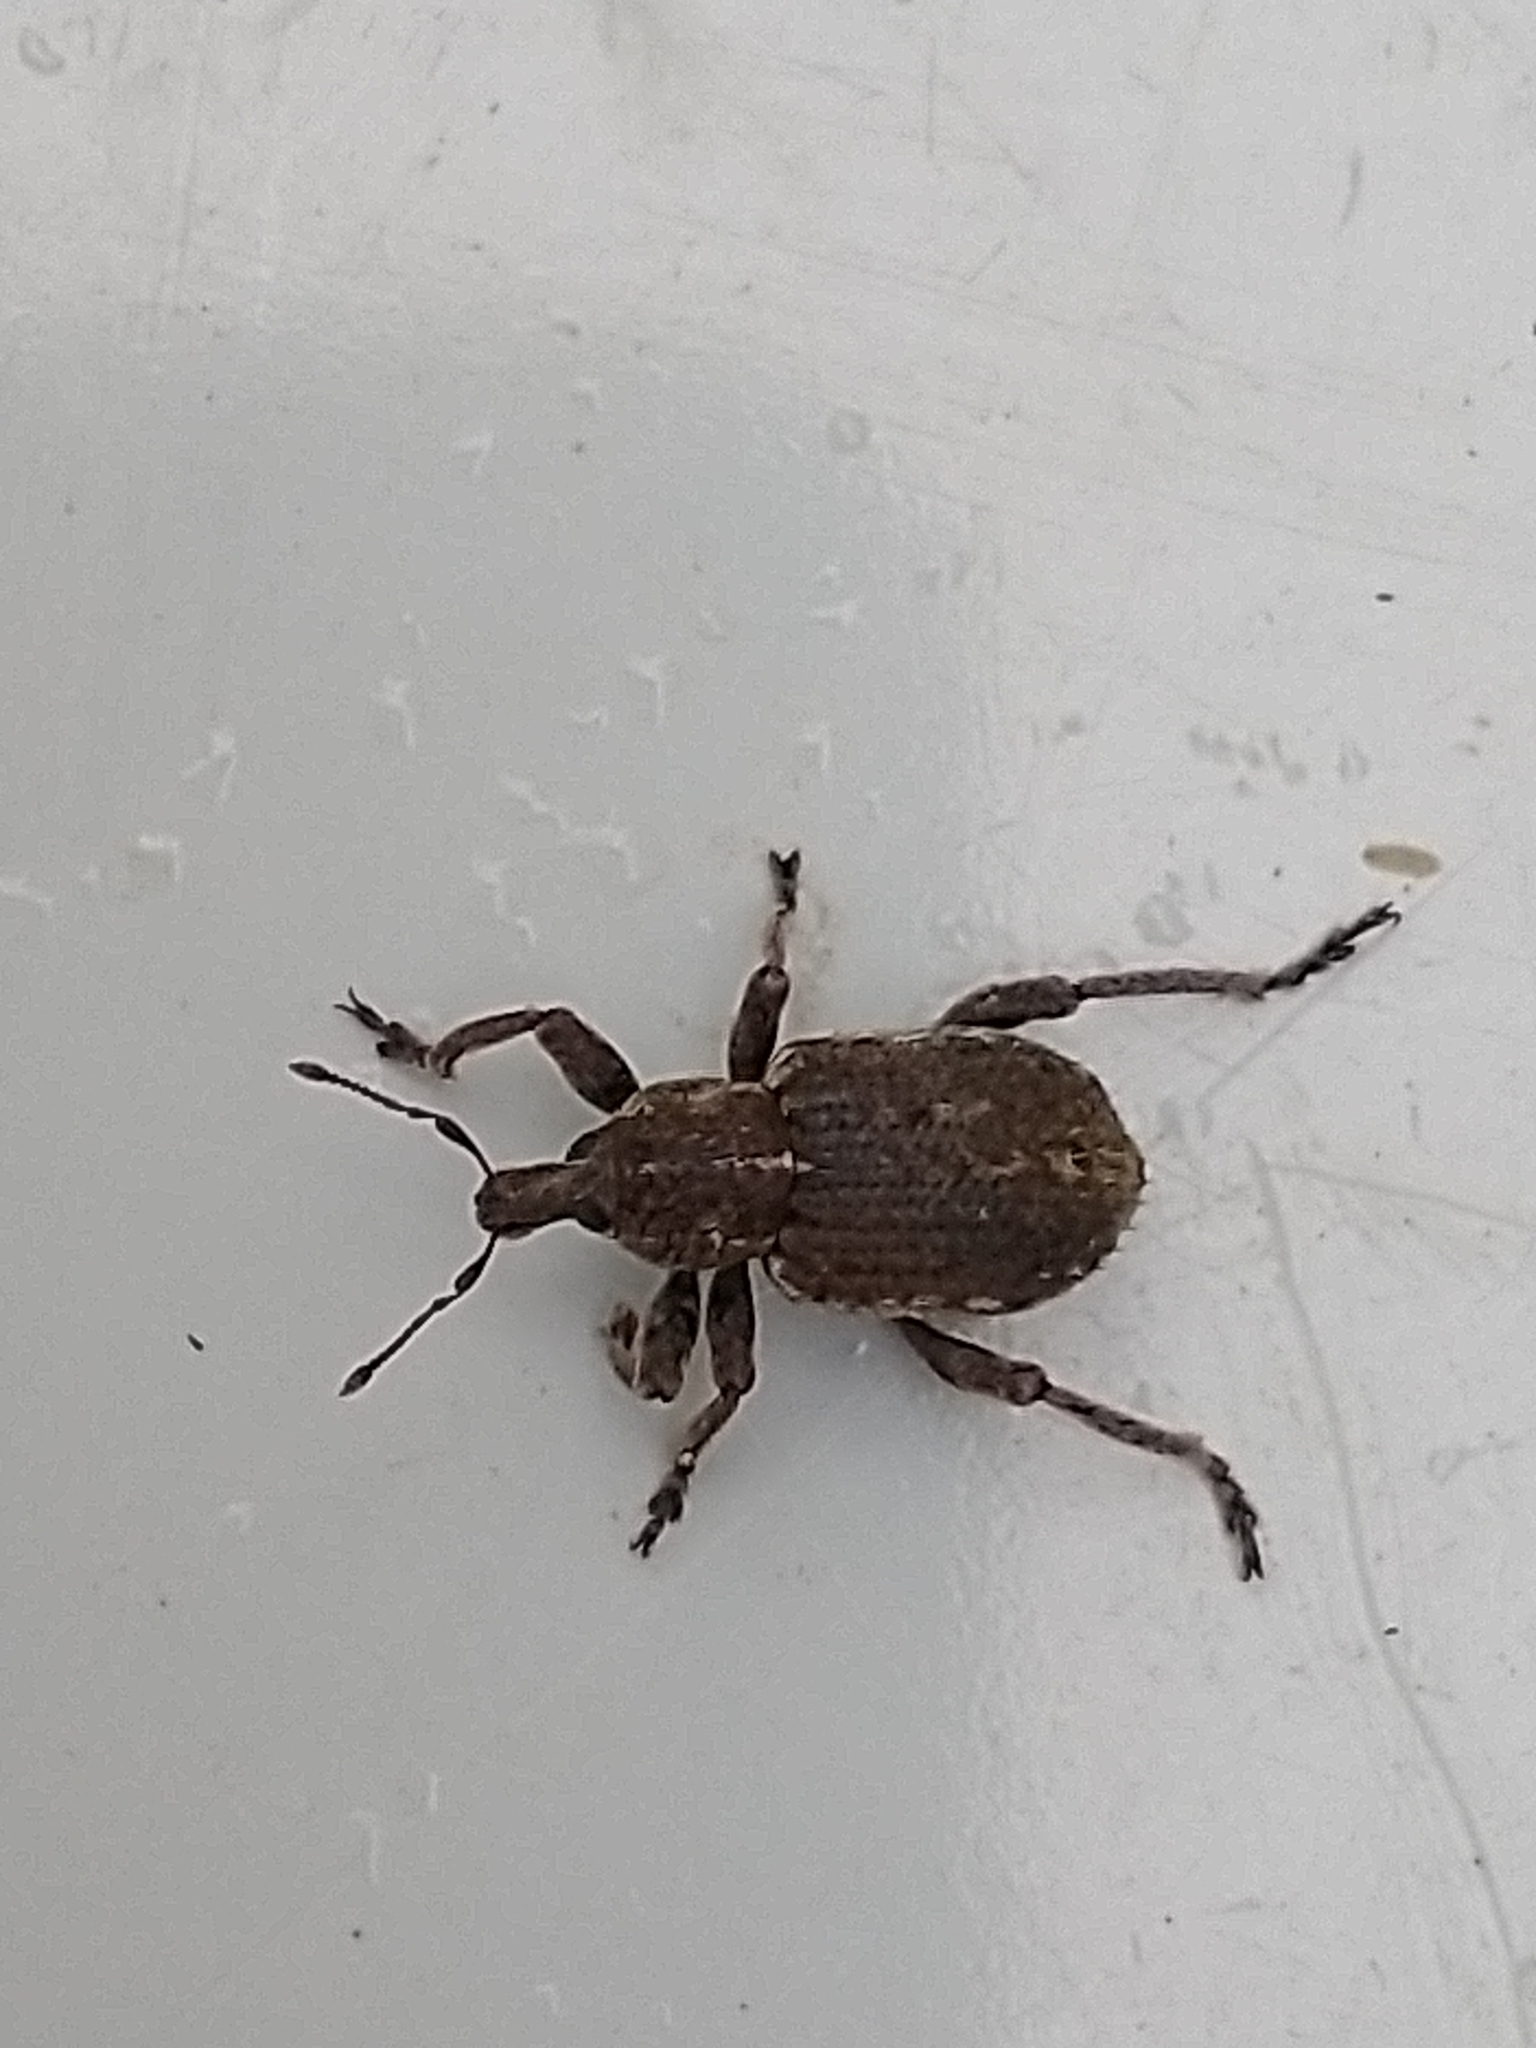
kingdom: Animalia
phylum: Arthropoda
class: Insecta
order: Coleoptera
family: Curculionidae
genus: Brachypera
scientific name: Brachypera zoilus
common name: Clover leaf weevil
